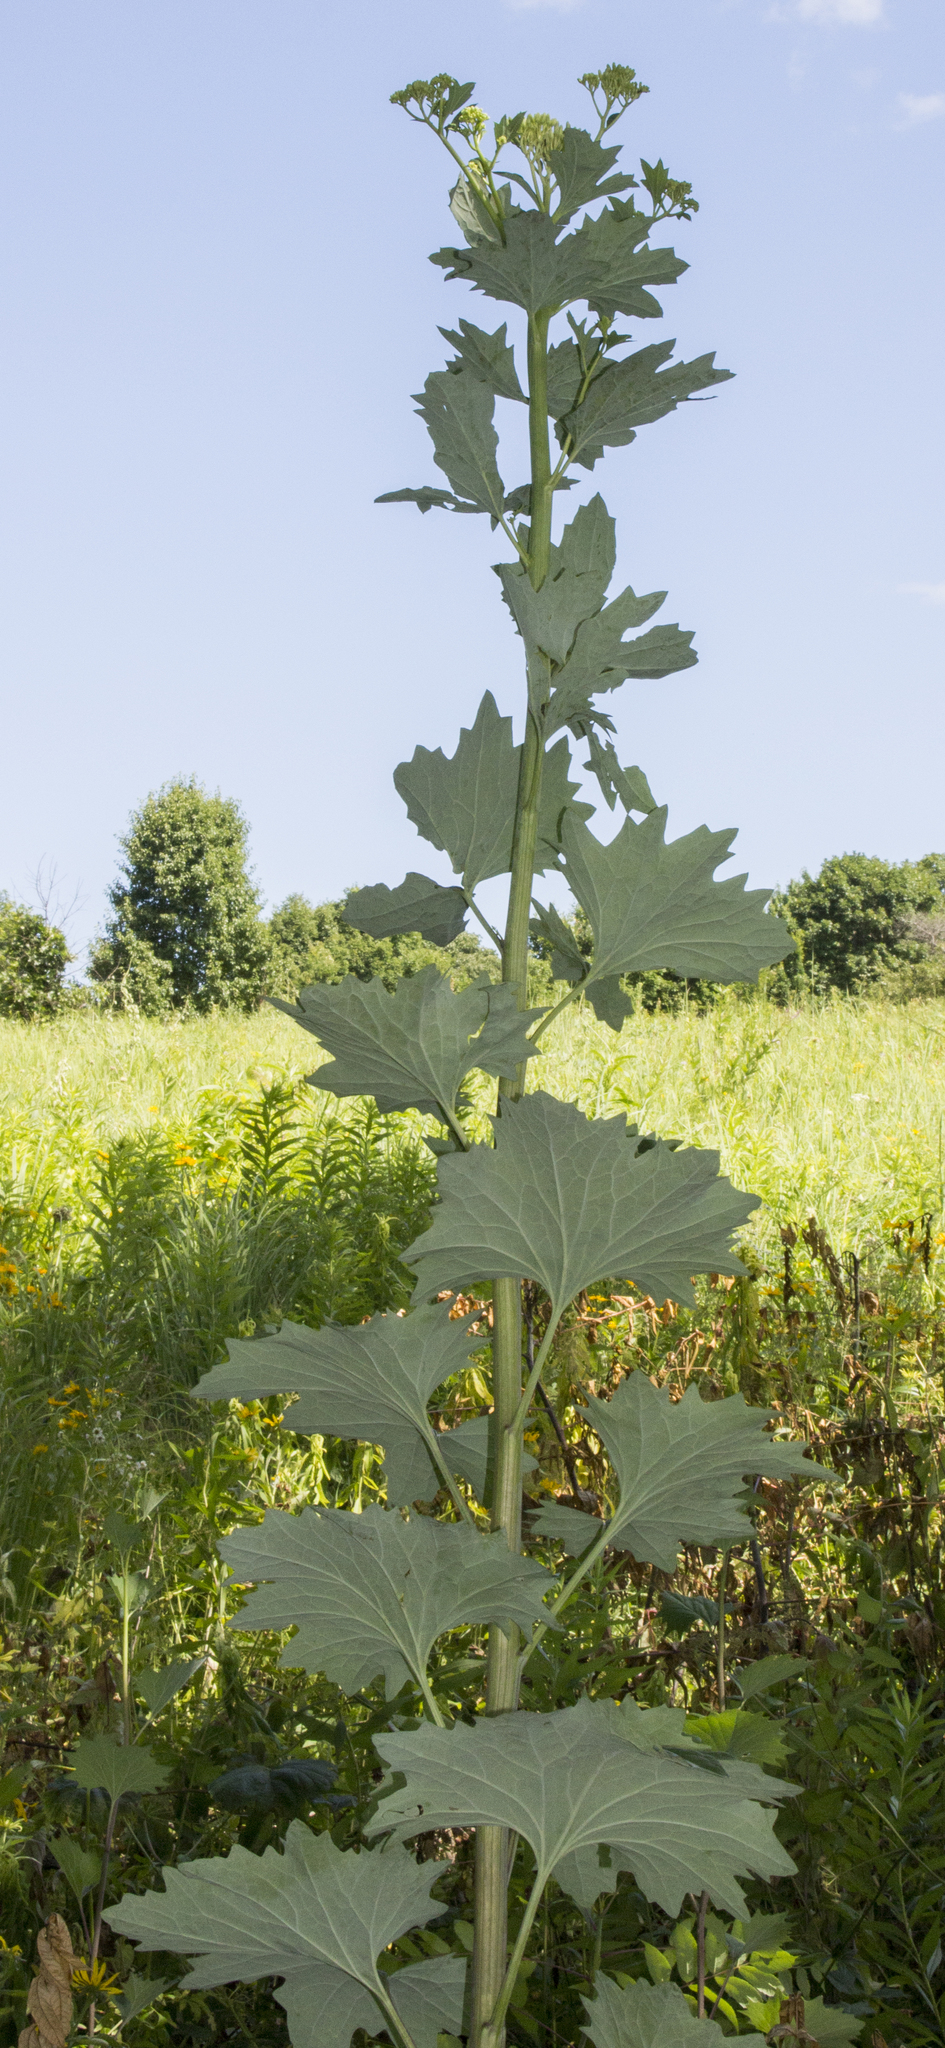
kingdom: Plantae
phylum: Tracheophyta
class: Magnoliopsida
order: Asterales
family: Asteraceae
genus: Arnoglossum
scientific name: Arnoglossum atriplicifolium
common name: Pale indian-plantain
